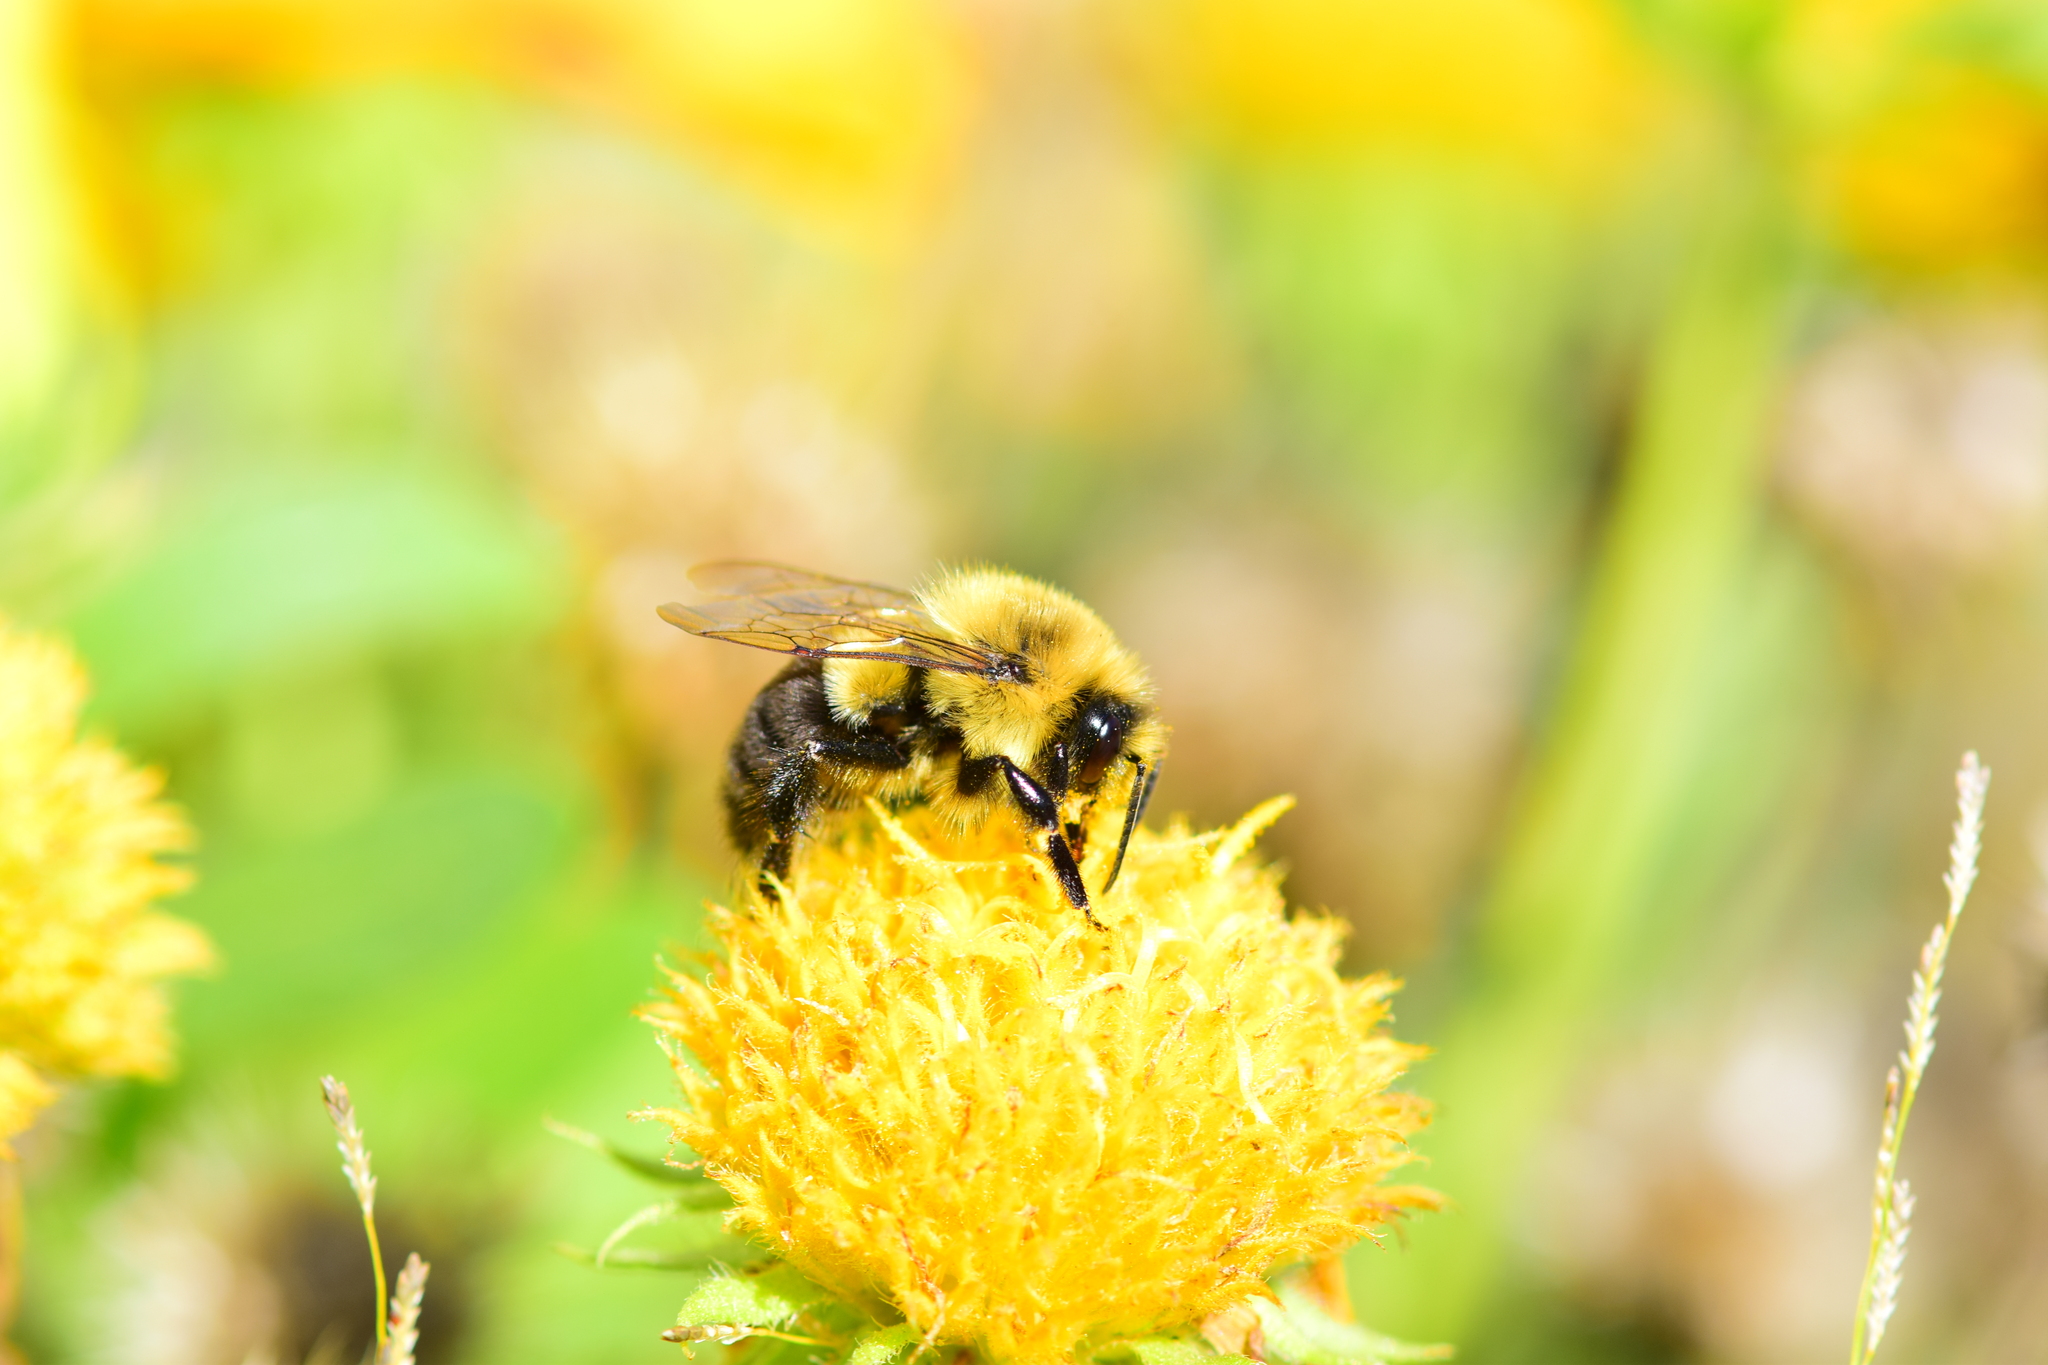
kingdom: Animalia
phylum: Arthropoda
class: Insecta
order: Hymenoptera
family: Apidae
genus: Bombus
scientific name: Bombus impatiens
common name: Common eastern bumble bee
